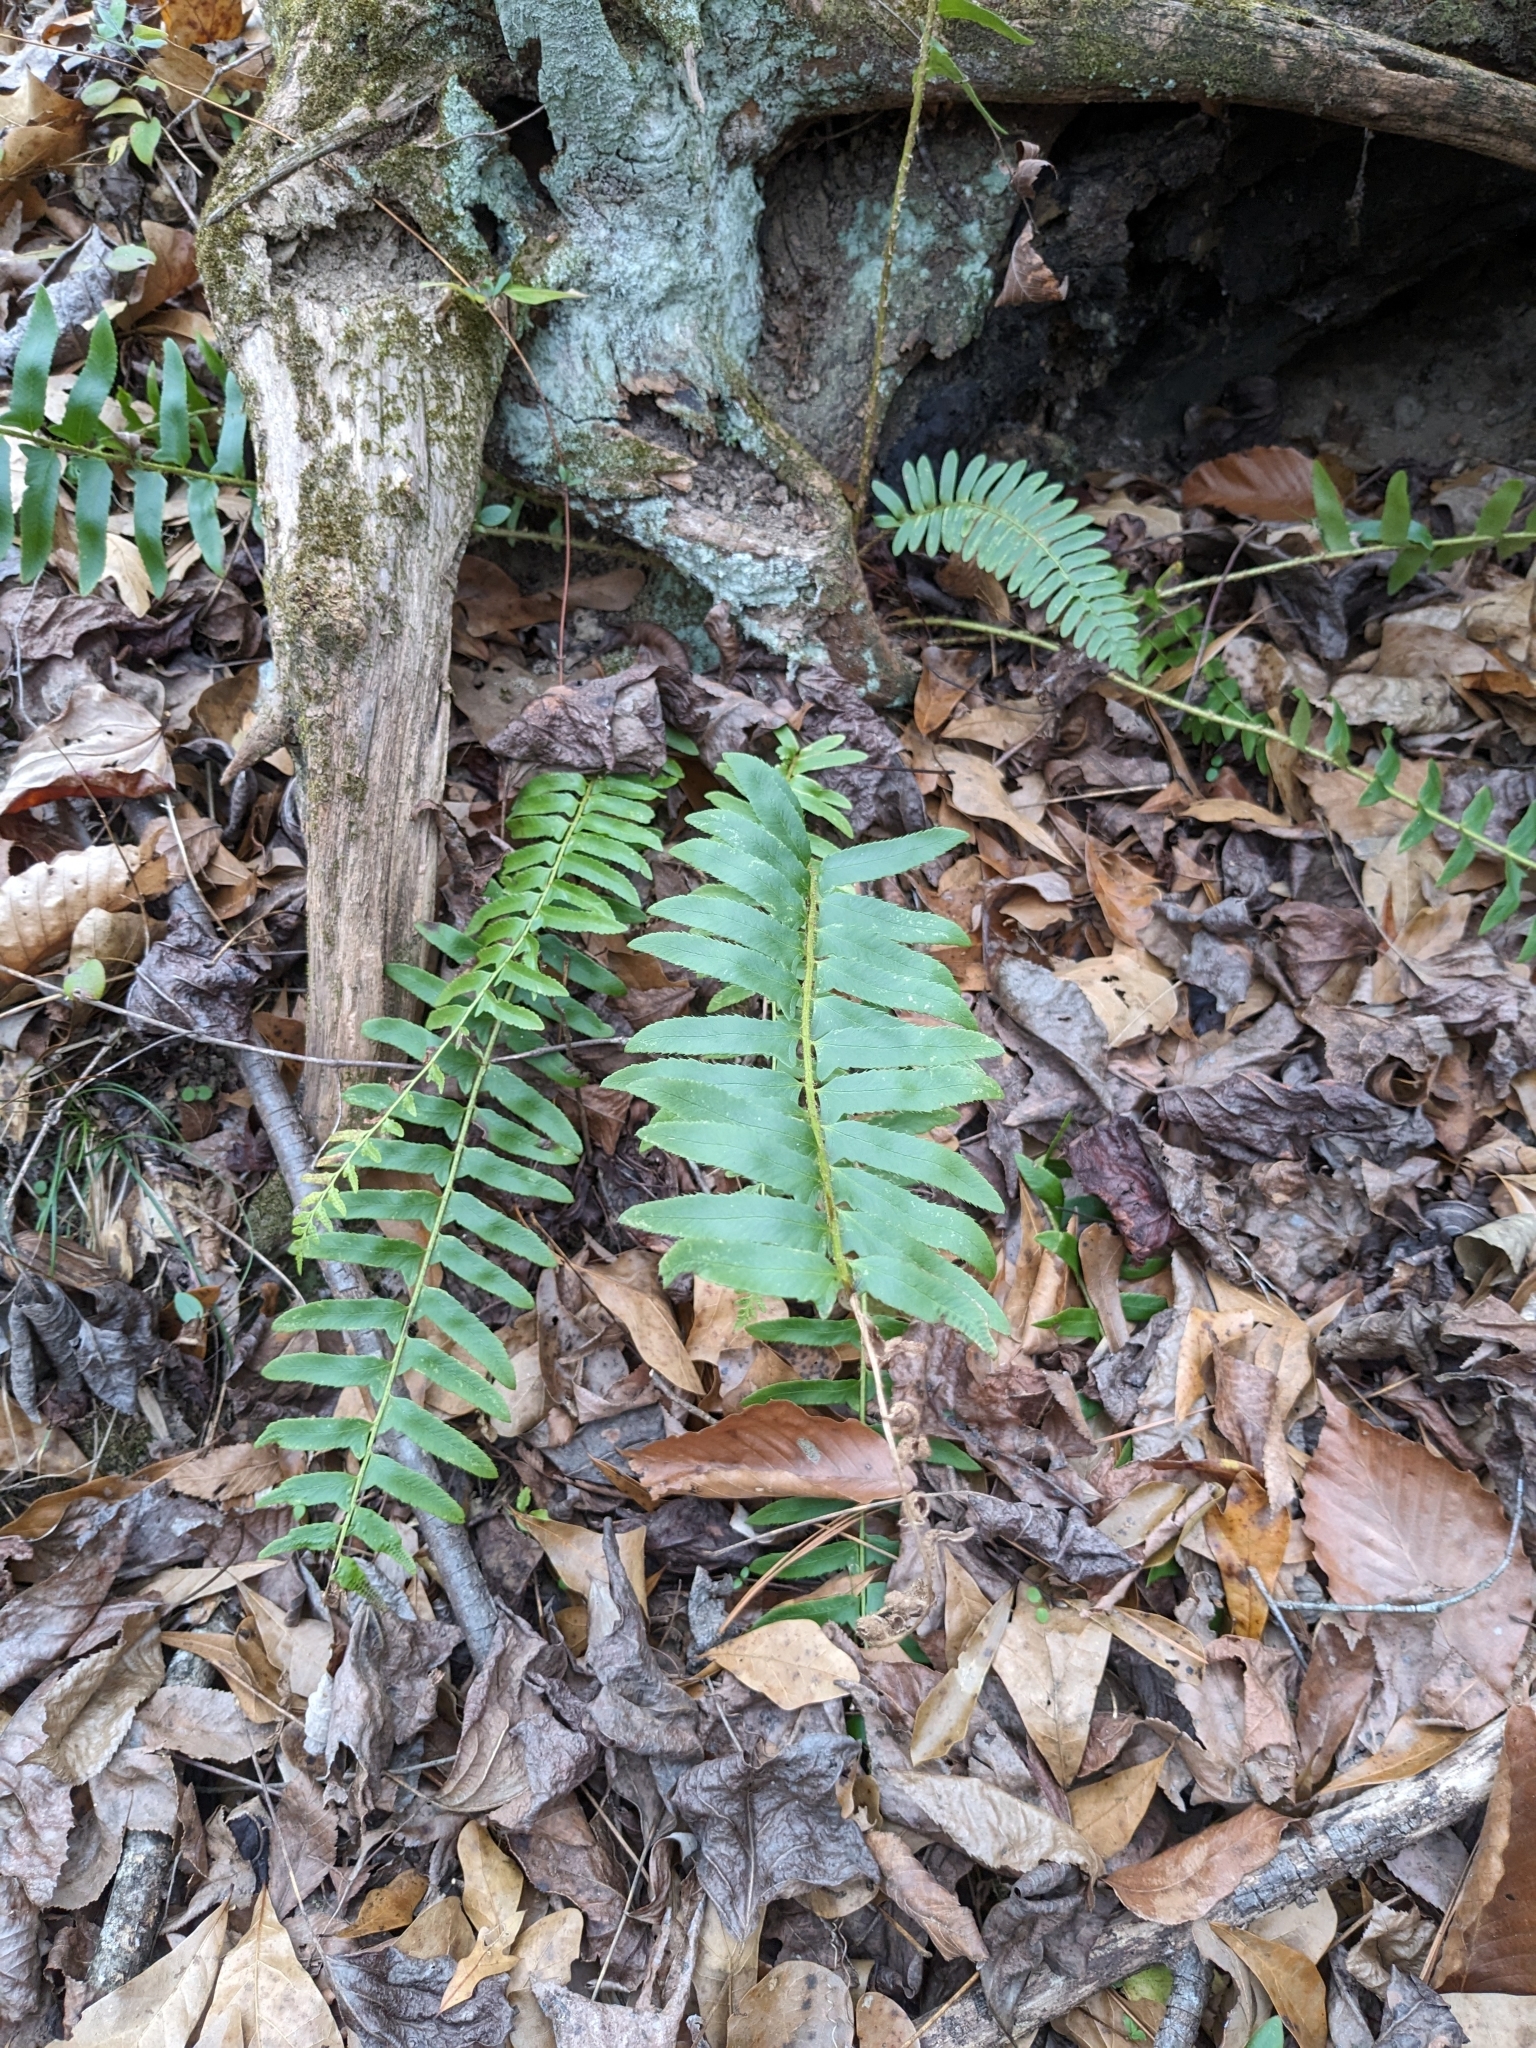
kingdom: Plantae
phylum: Tracheophyta
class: Polypodiopsida
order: Polypodiales
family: Dryopteridaceae
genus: Polystichum
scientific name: Polystichum acrostichoides
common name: Christmas fern
